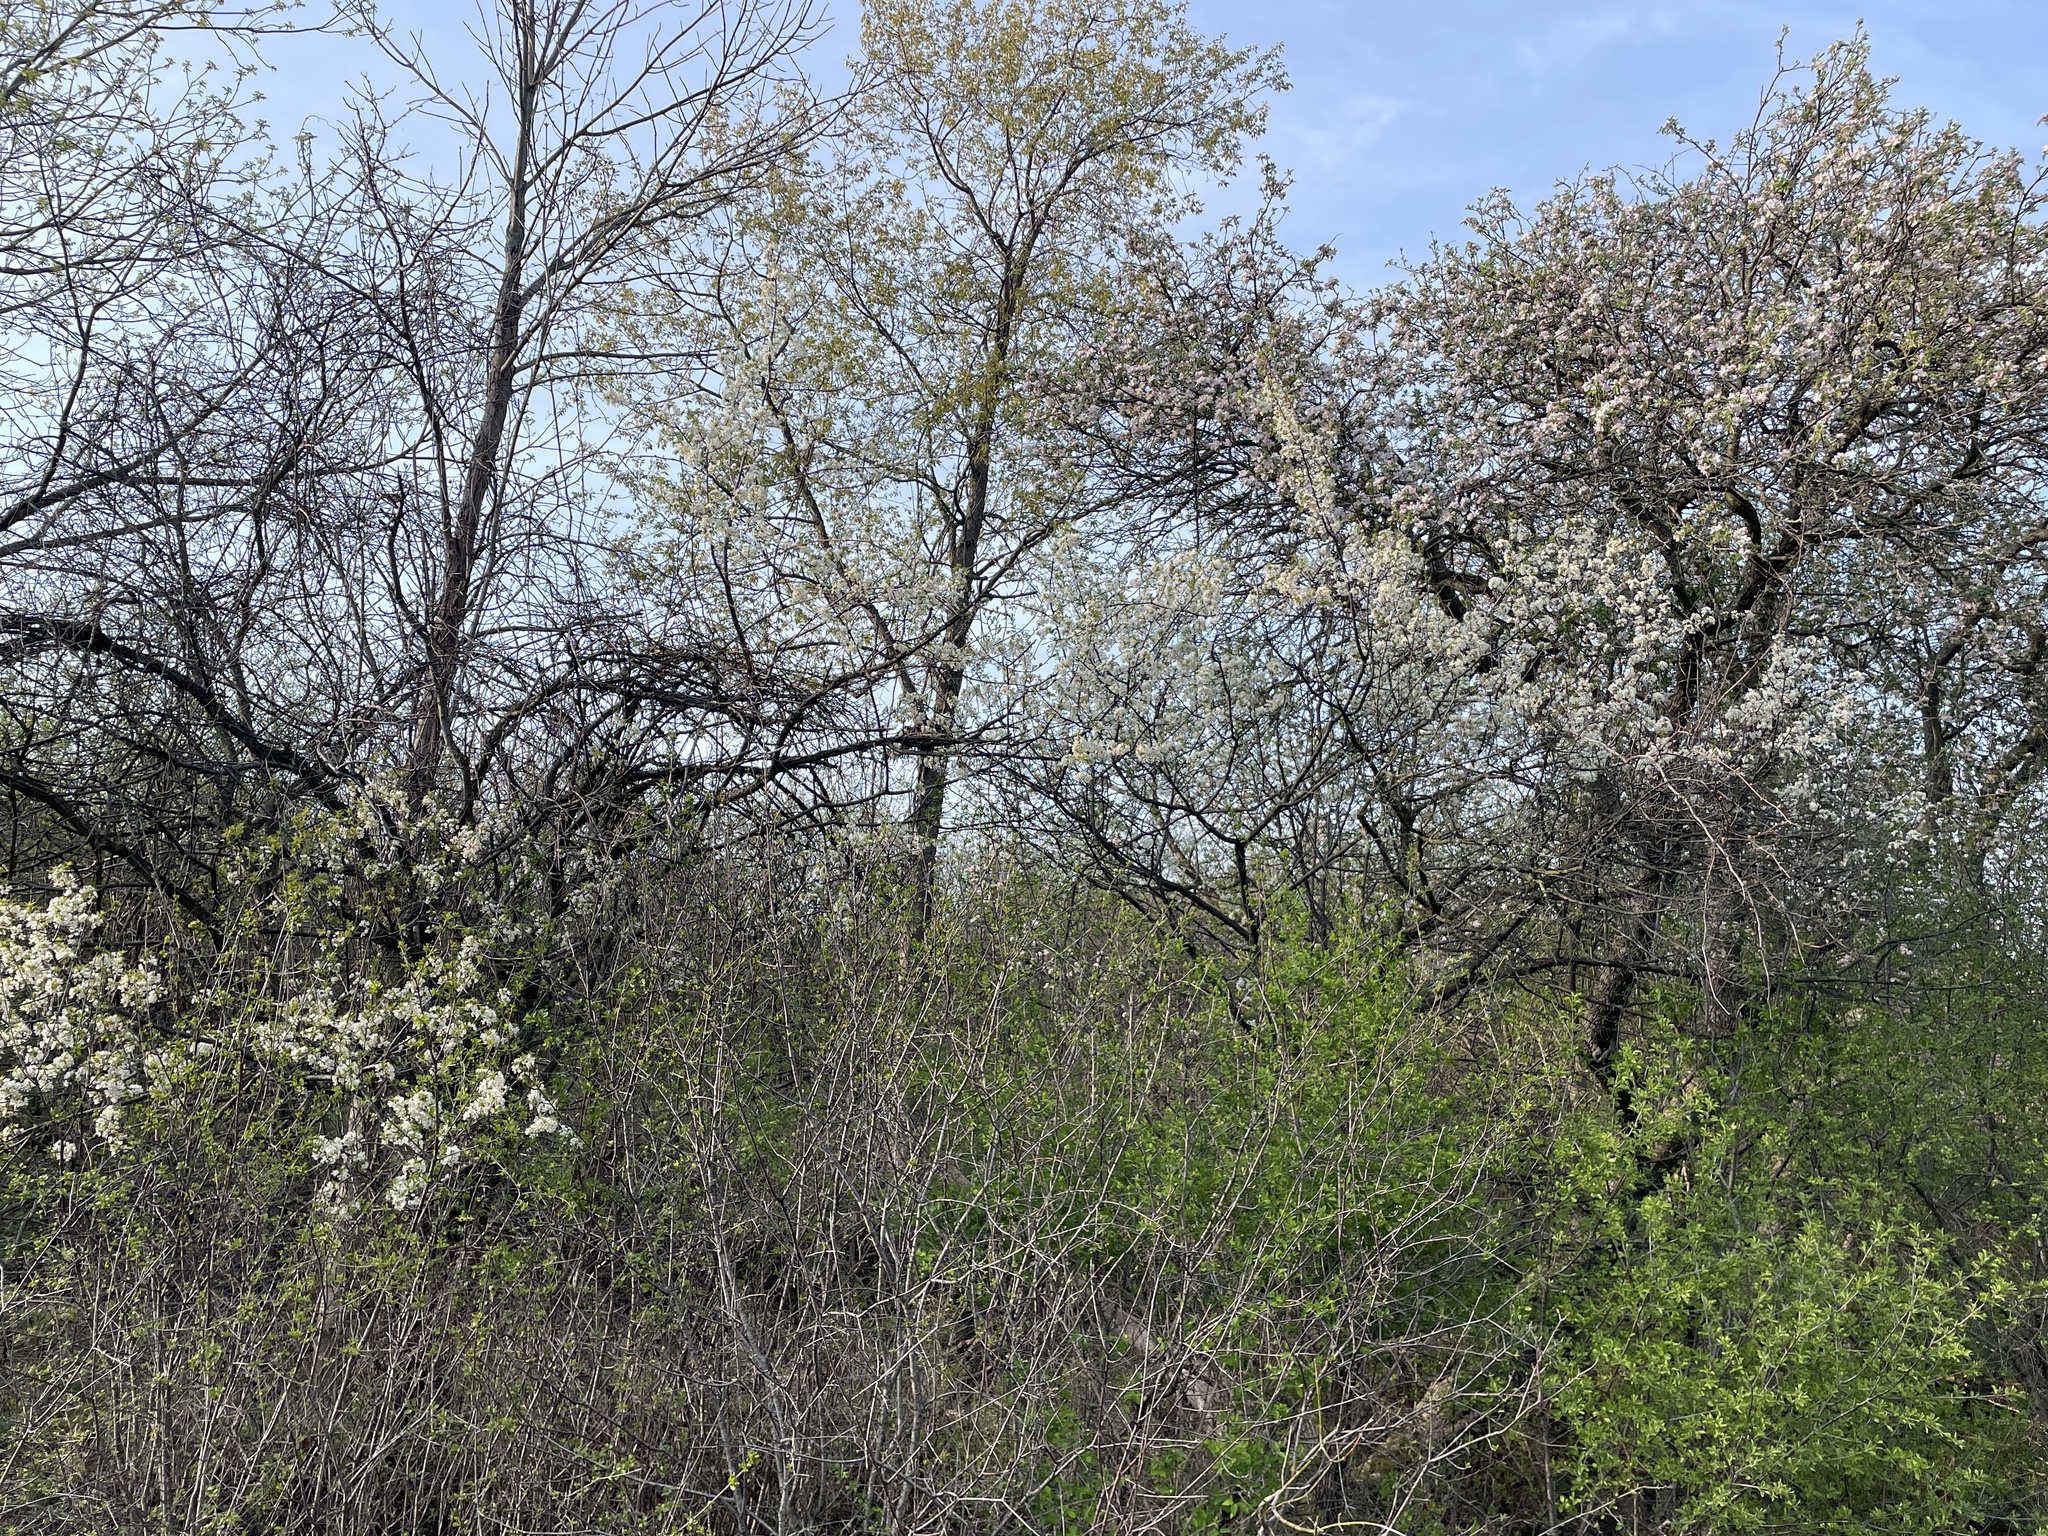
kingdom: Plantae
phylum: Tracheophyta
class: Magnoliopsida
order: Rosales
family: Rosaceae
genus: Prunus
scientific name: Prunus americana
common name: American plum
